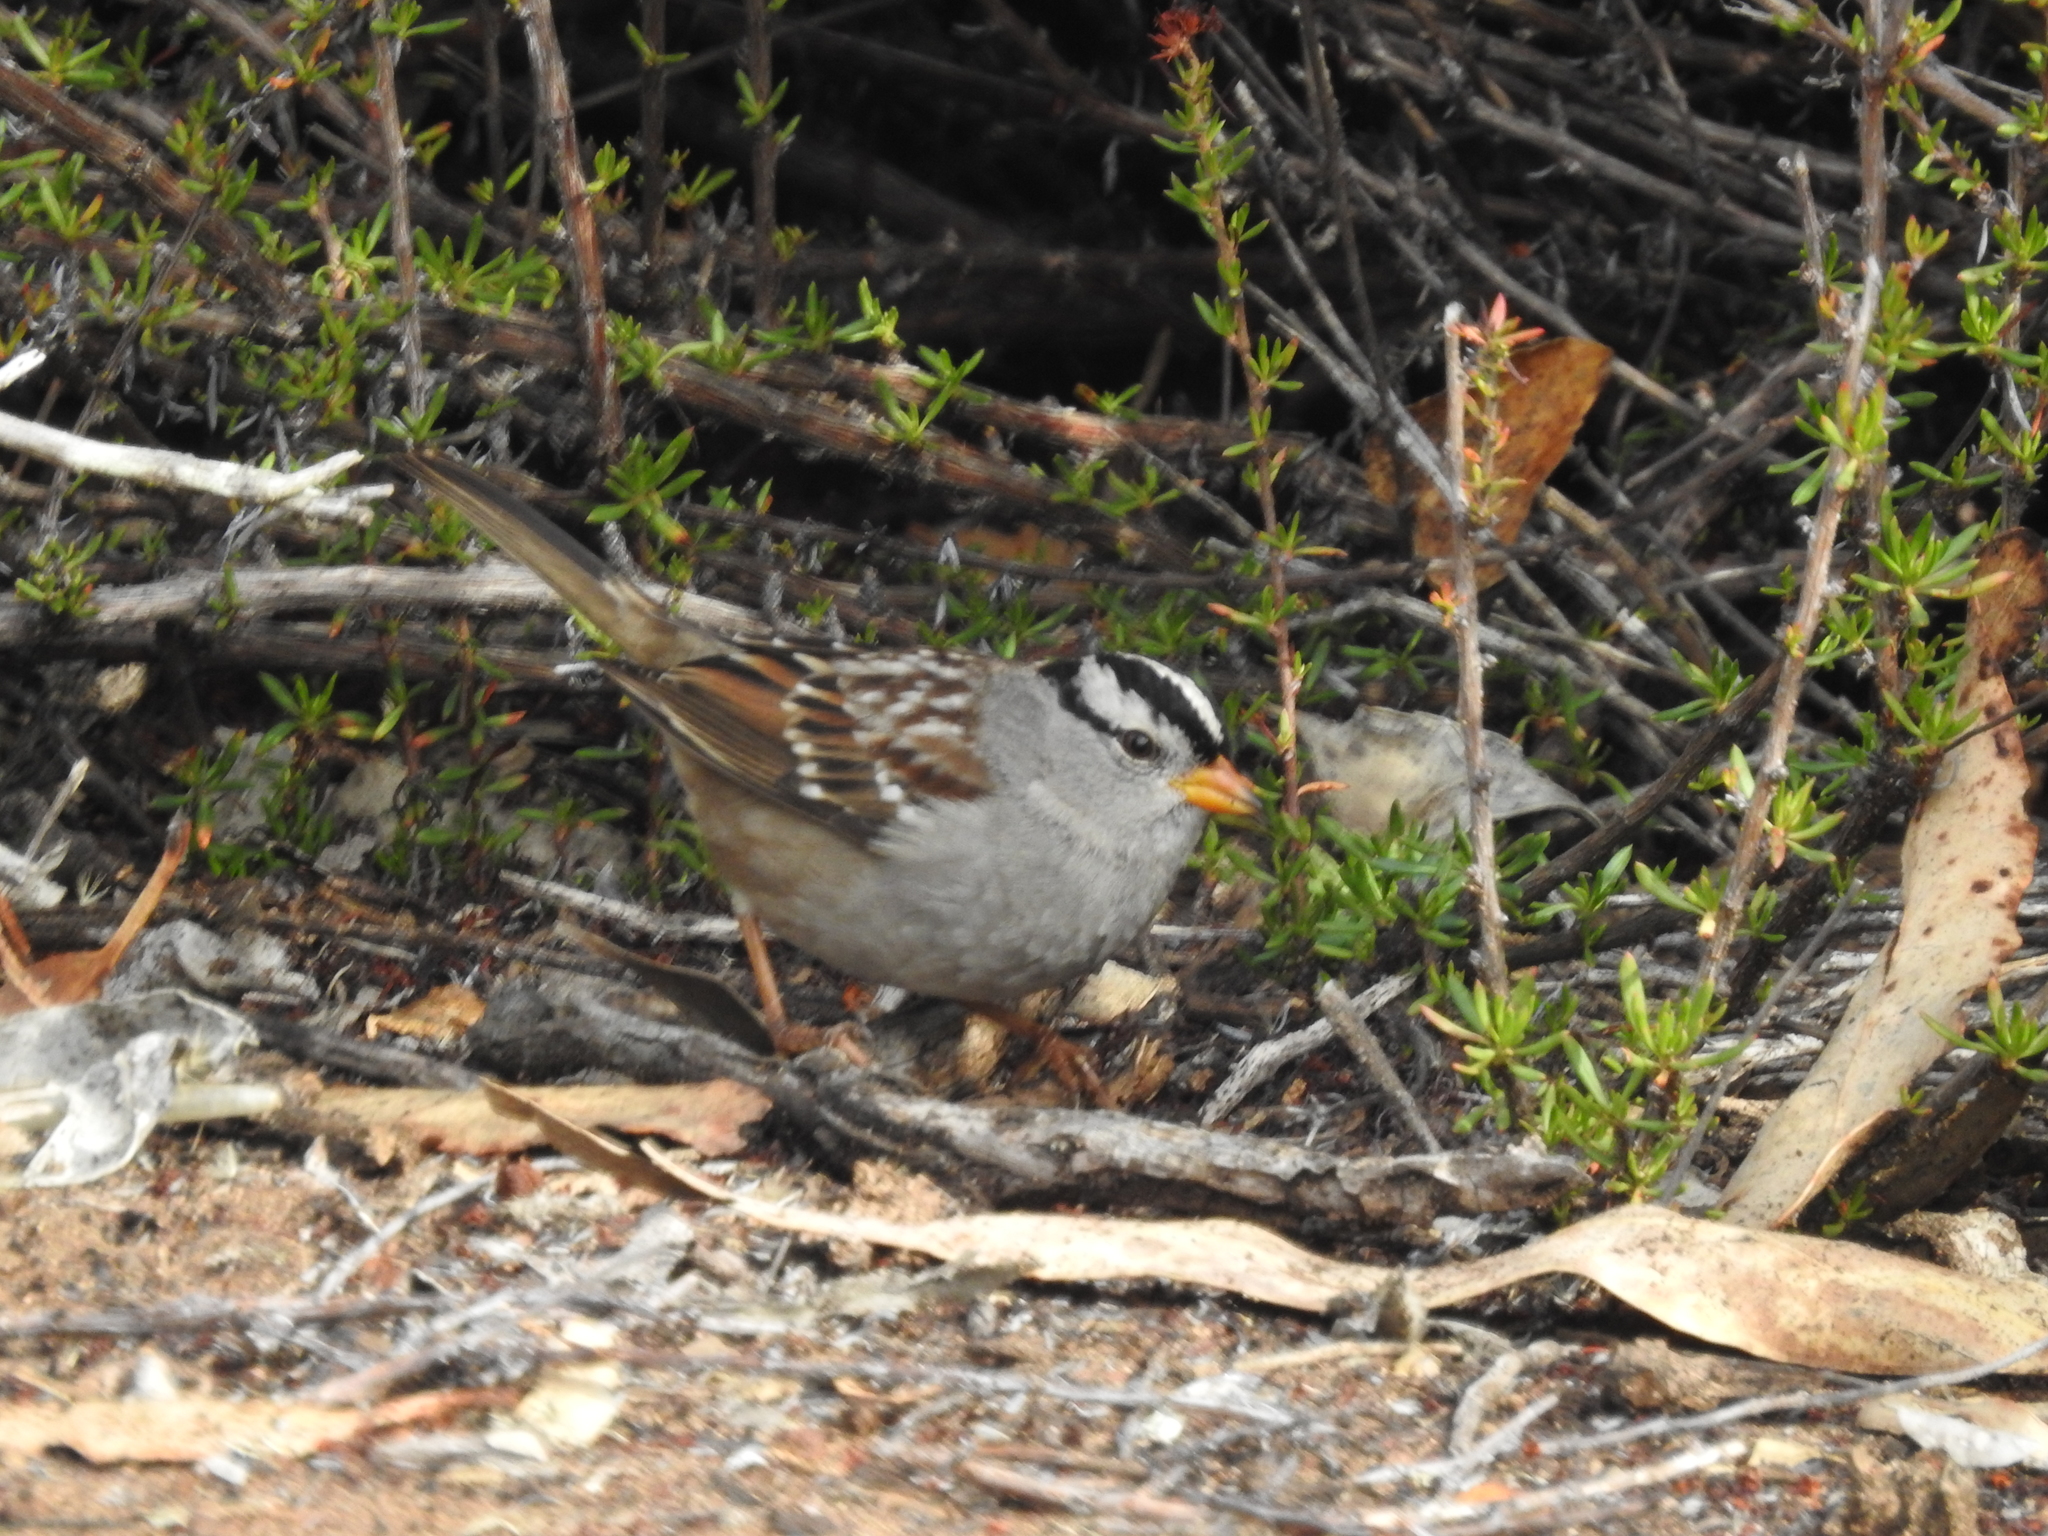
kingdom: Animalia
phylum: Chordata
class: Aves
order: Passeriformes
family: Passerellidae
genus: Zonotrichia
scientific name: Zonotrichia leucophrys
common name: White-crowned sparrow
